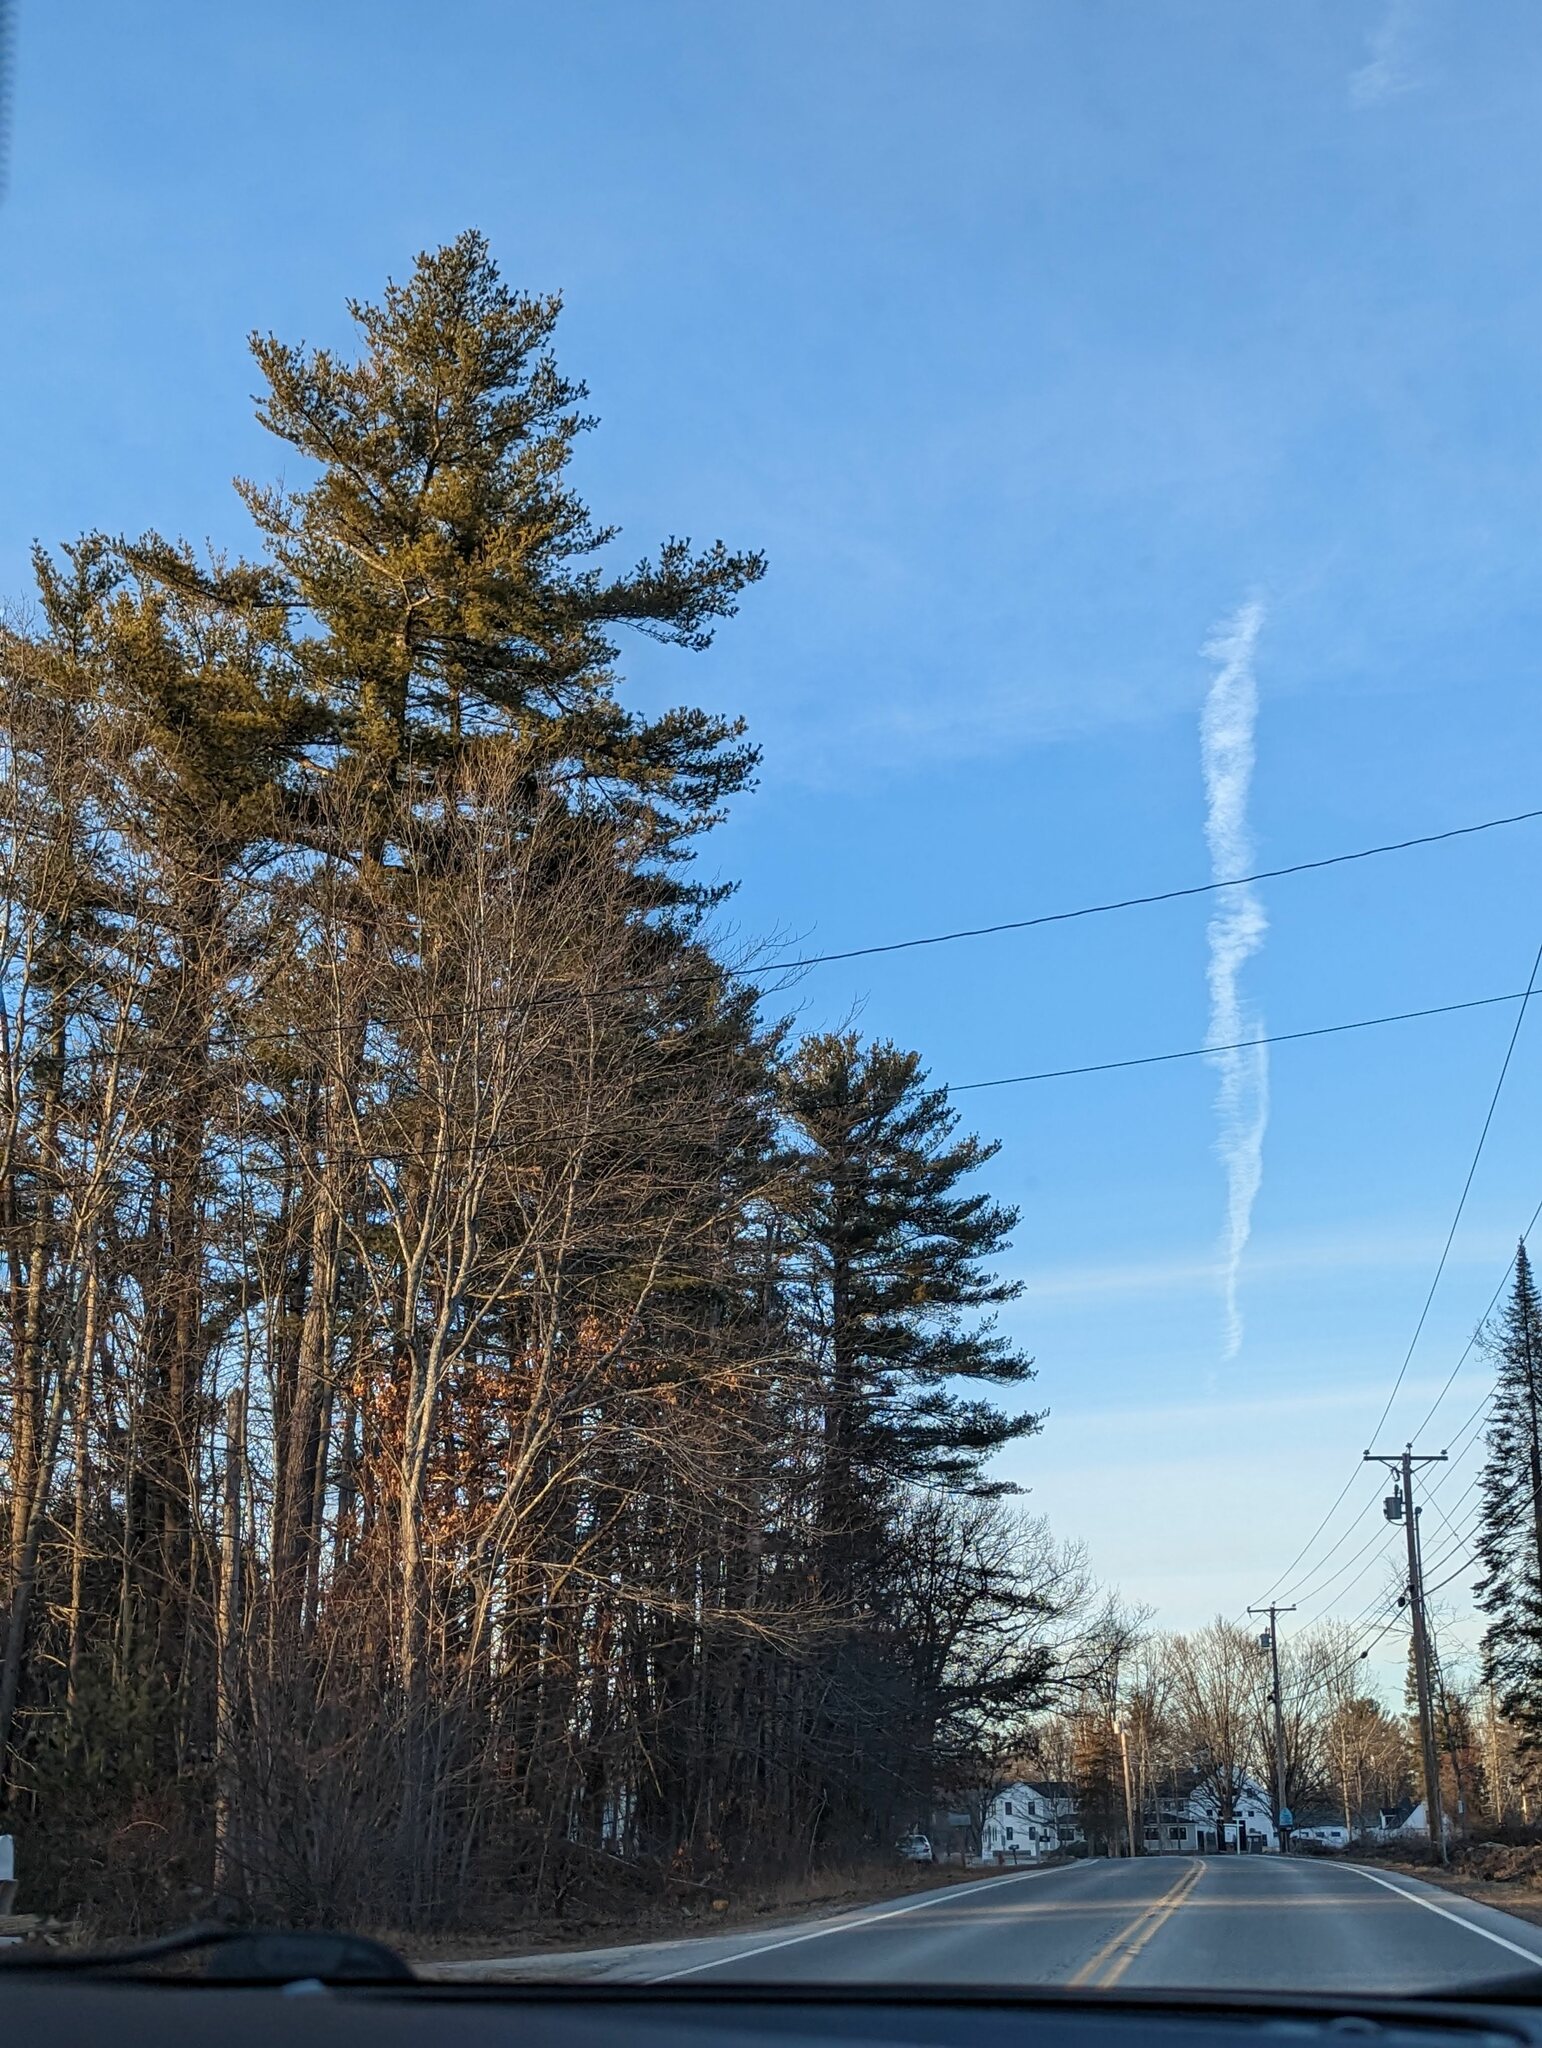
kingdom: Plantae
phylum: Tracheophyta
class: Pinopsida
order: Pinales
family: Pinaceae
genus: Pinus
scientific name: Pinus strobus
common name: Weymouth pine
